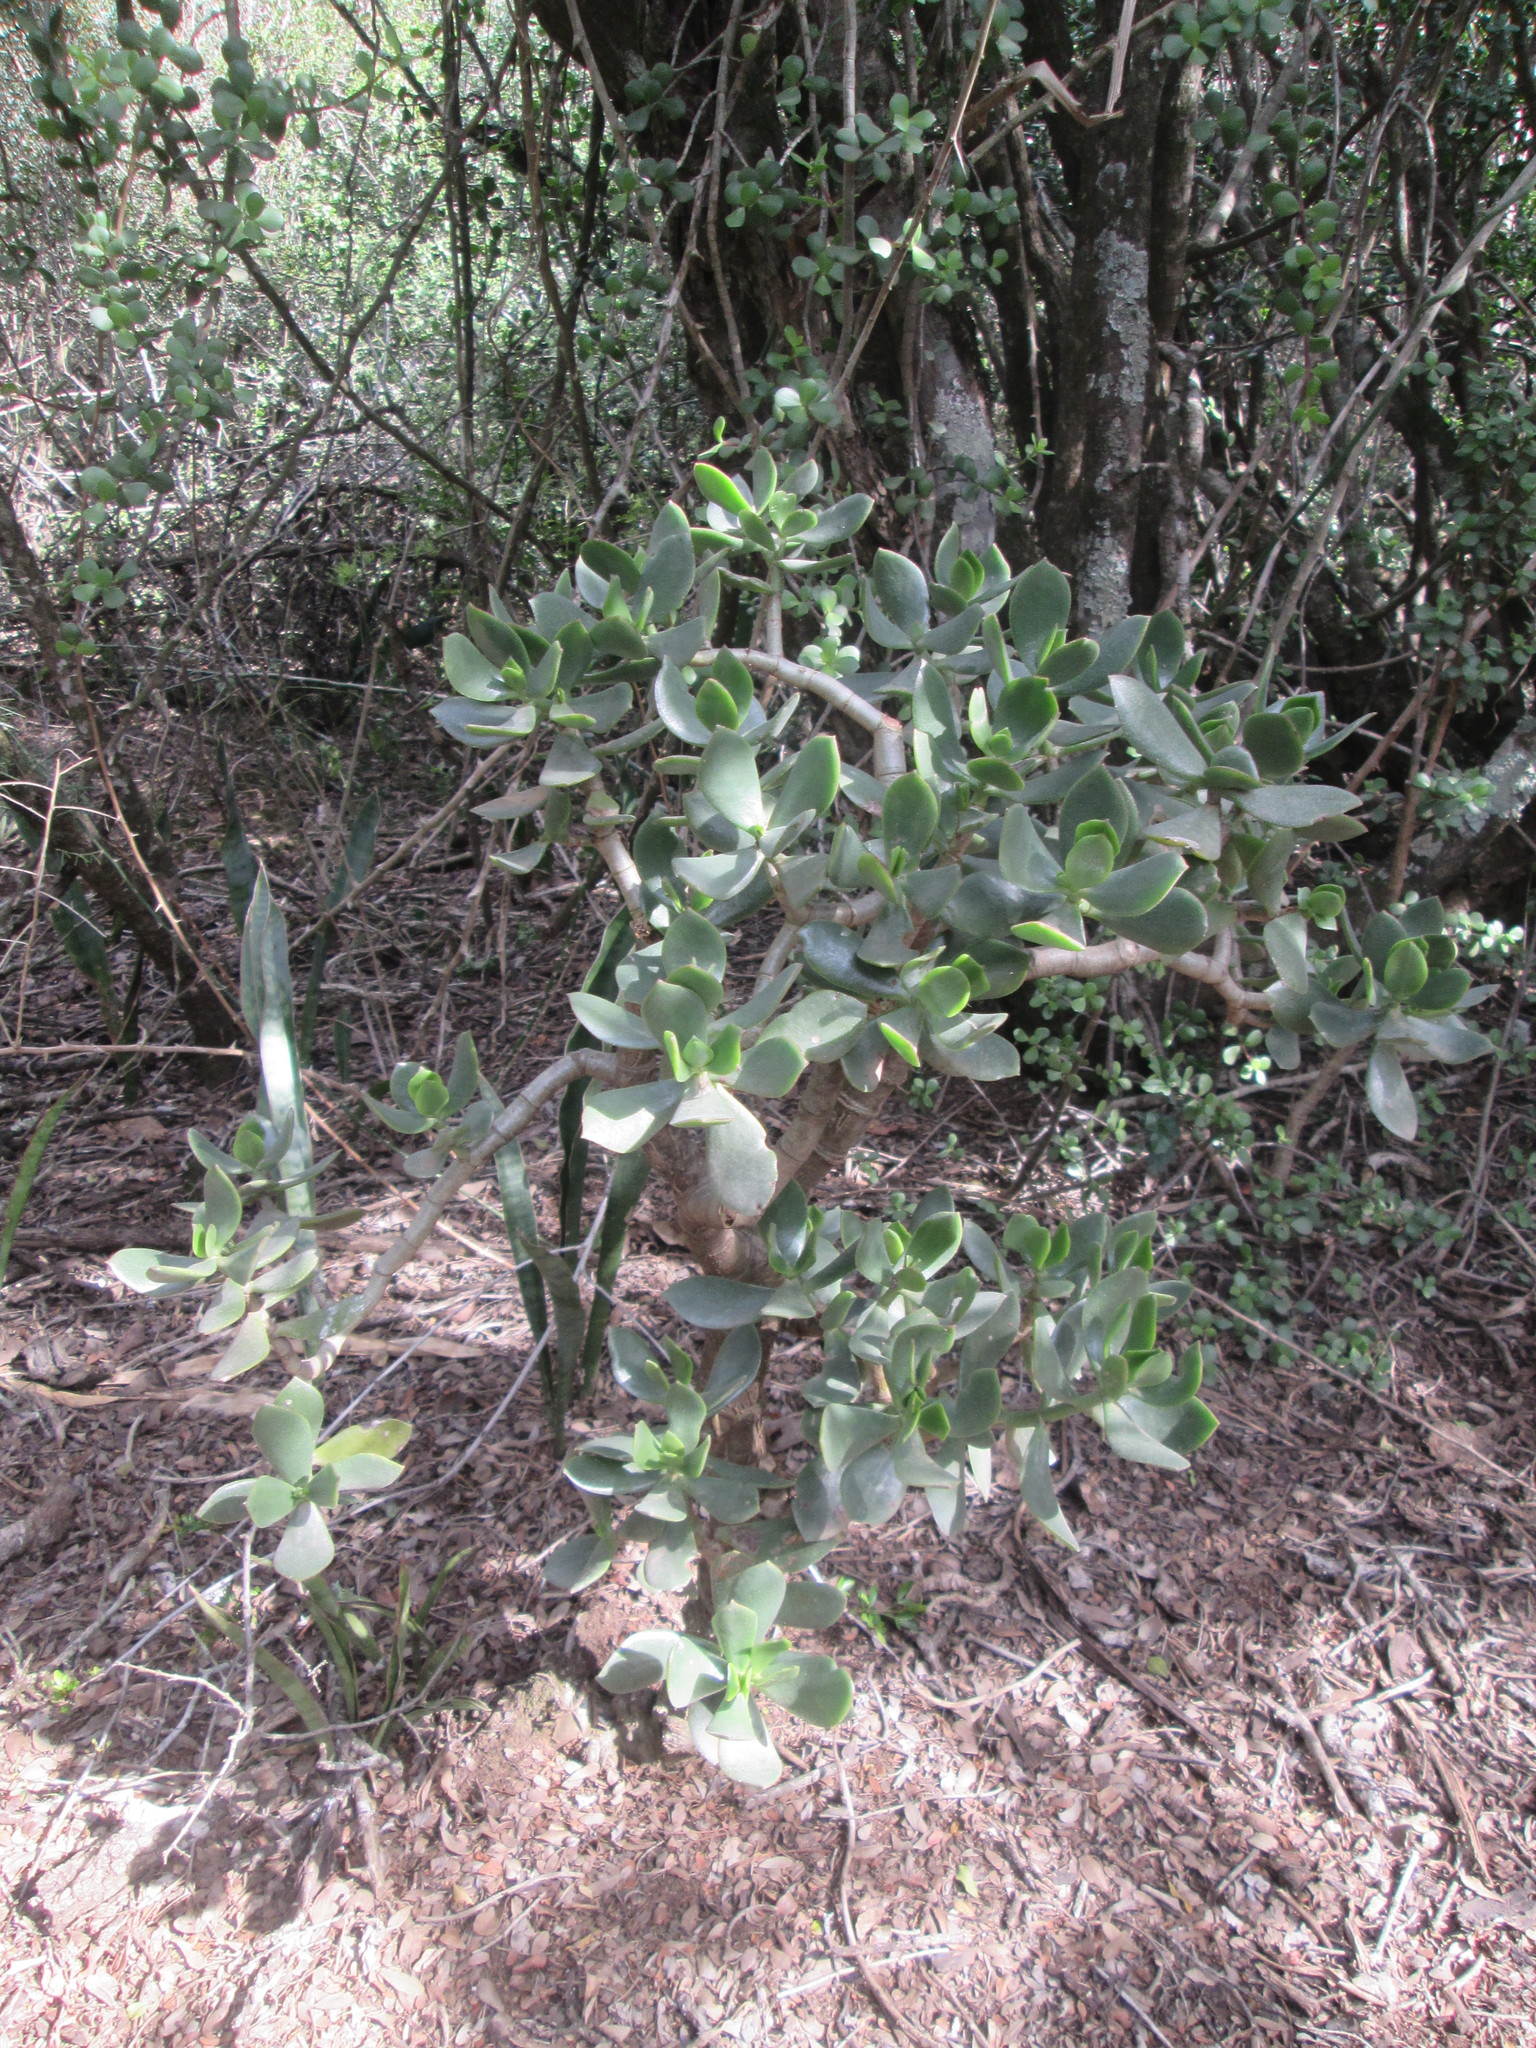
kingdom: Plantae
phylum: Tracheophyta
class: Magnoliopsida
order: Saxifragales
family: Crassulaceae
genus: Crassula
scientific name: Crassula ovata
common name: Jade plant
